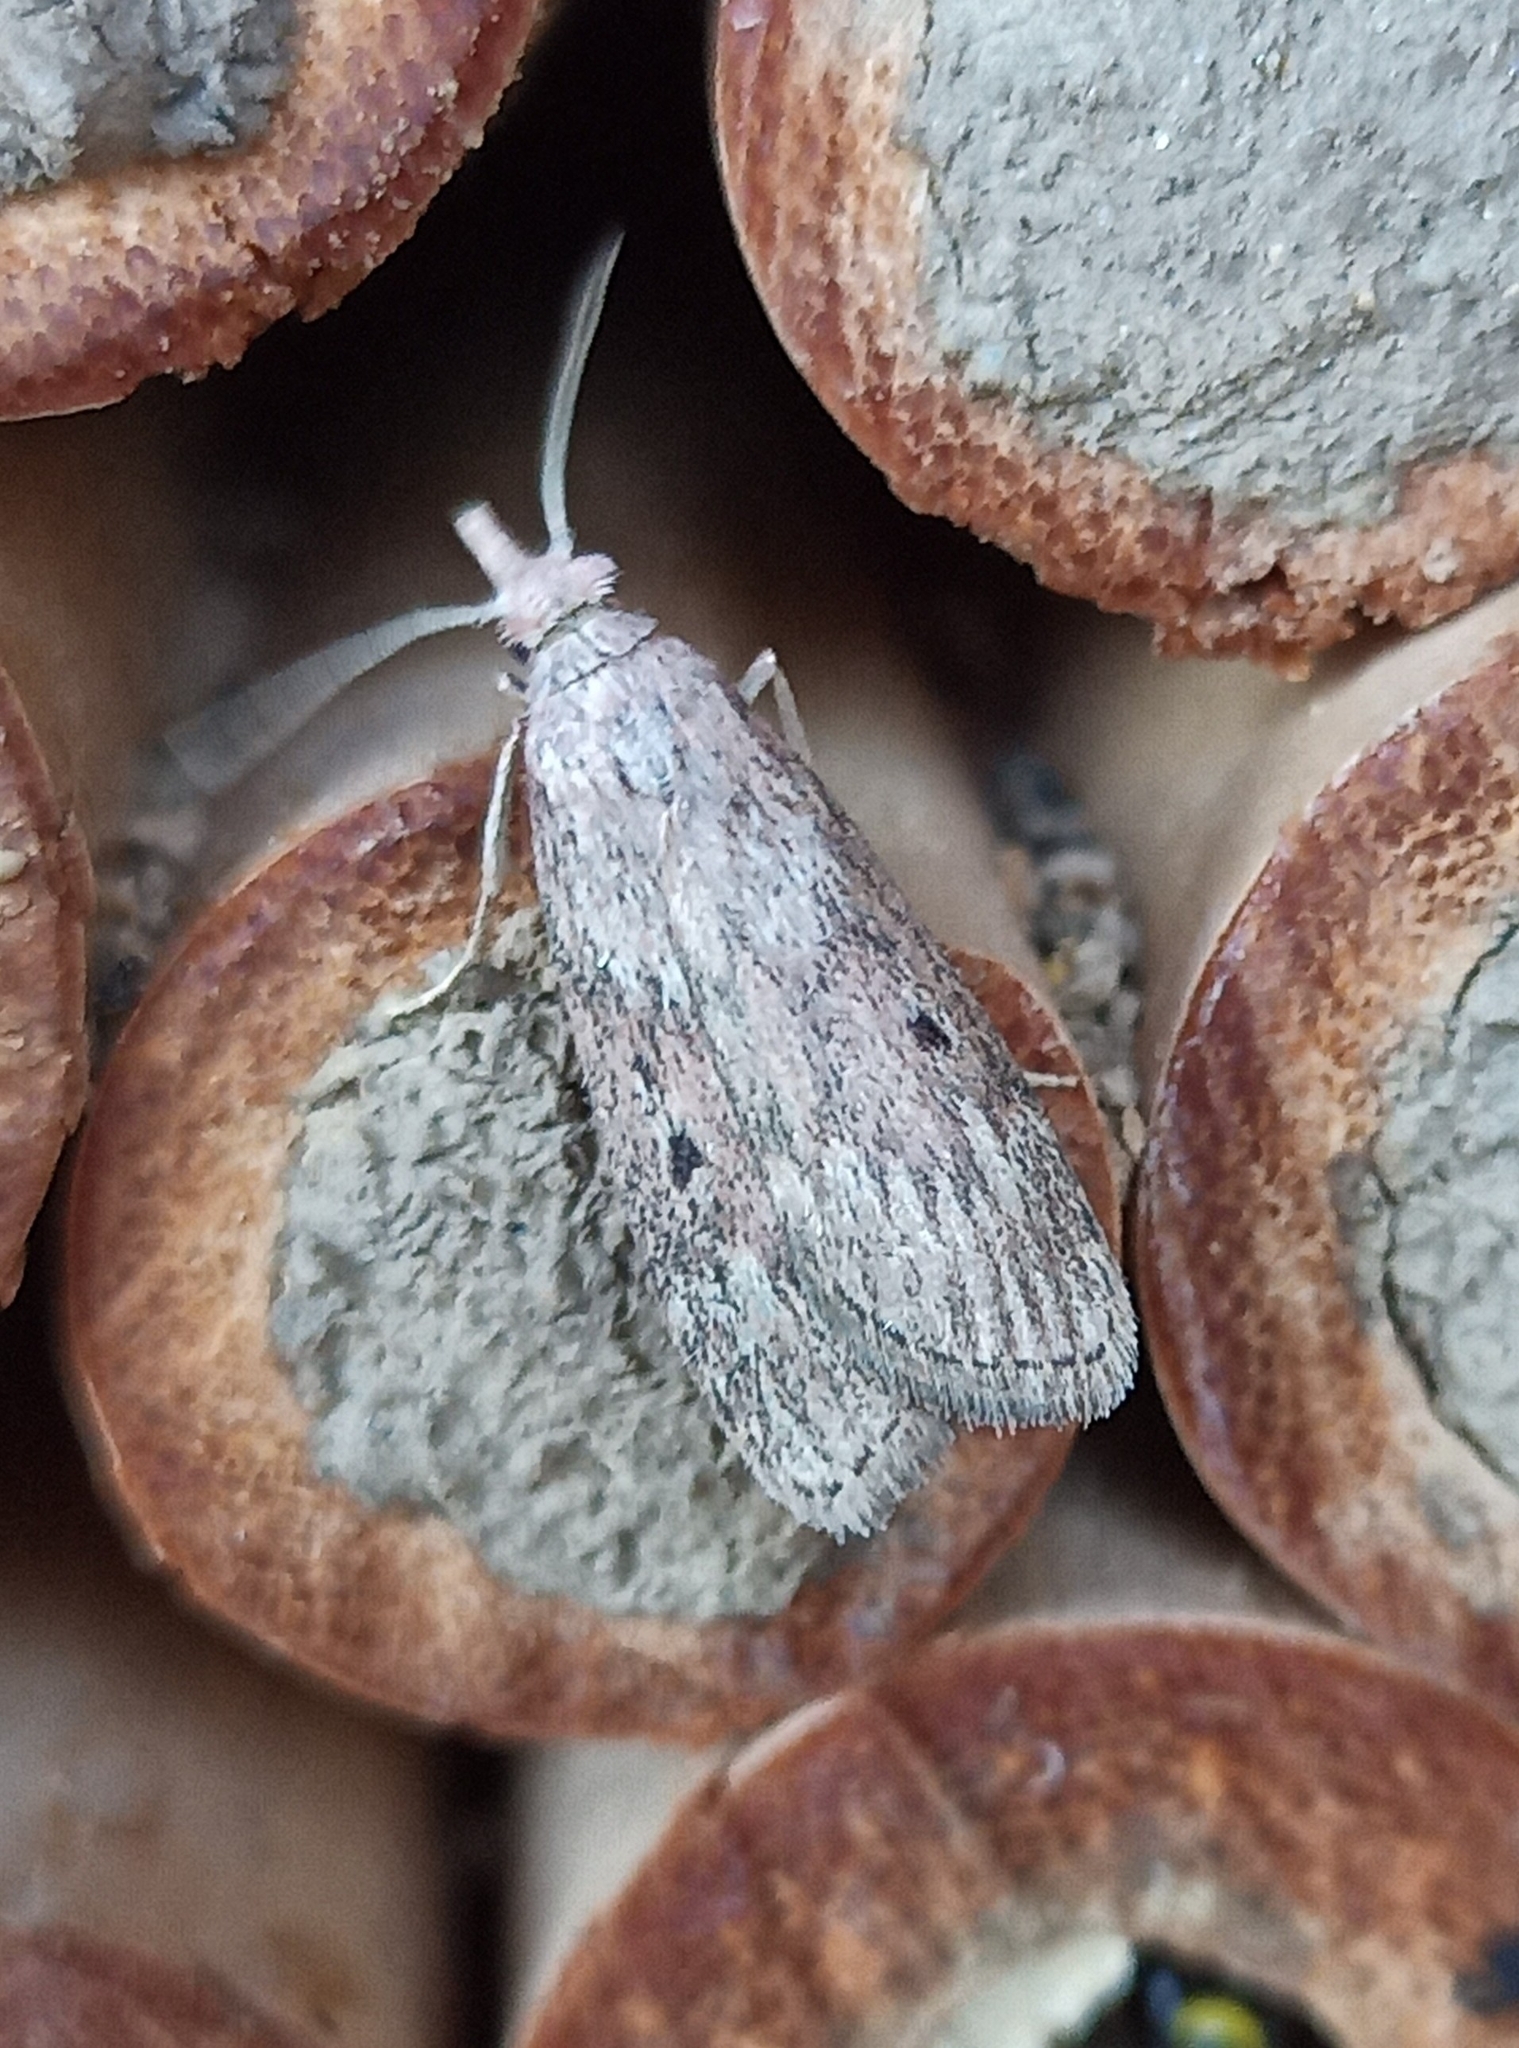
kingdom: Animalia
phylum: Arthropoda
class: Insecta
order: Lepidoptera
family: Pyralidae
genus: Aphomia
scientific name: Aphomia sociella
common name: Bee moth
